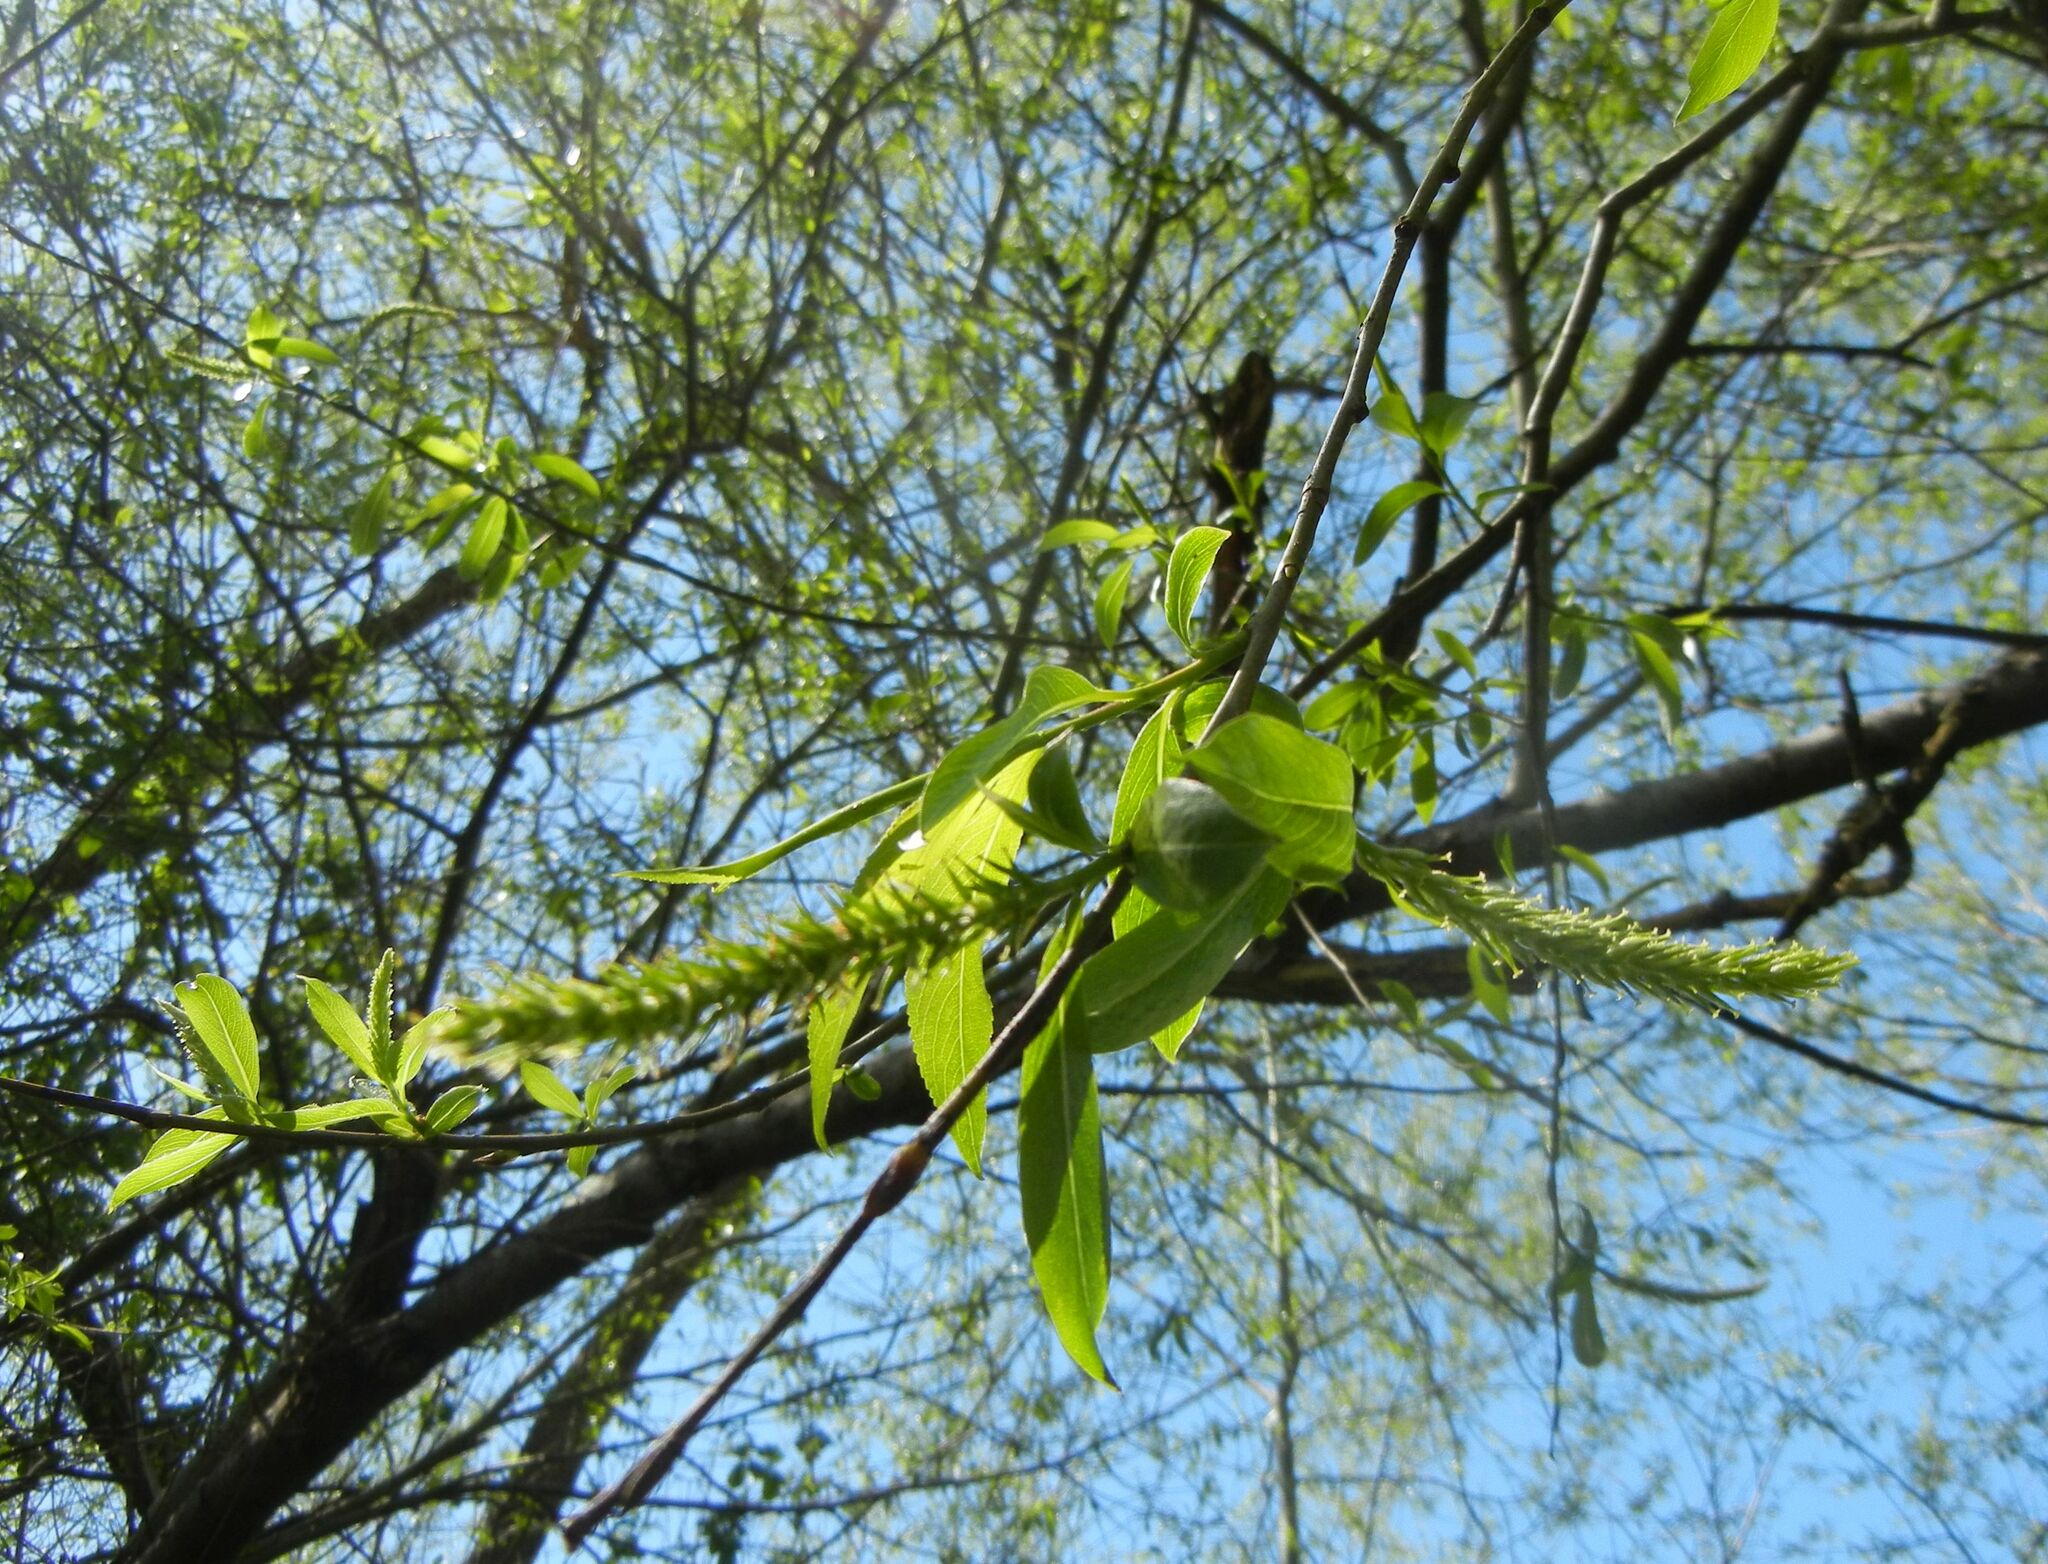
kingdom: Plantae
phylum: Tracheophyta
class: Magnoliopsida
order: Malpighiales
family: Salicaceae
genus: Salix
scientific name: Salix fragilis
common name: Crack willow
